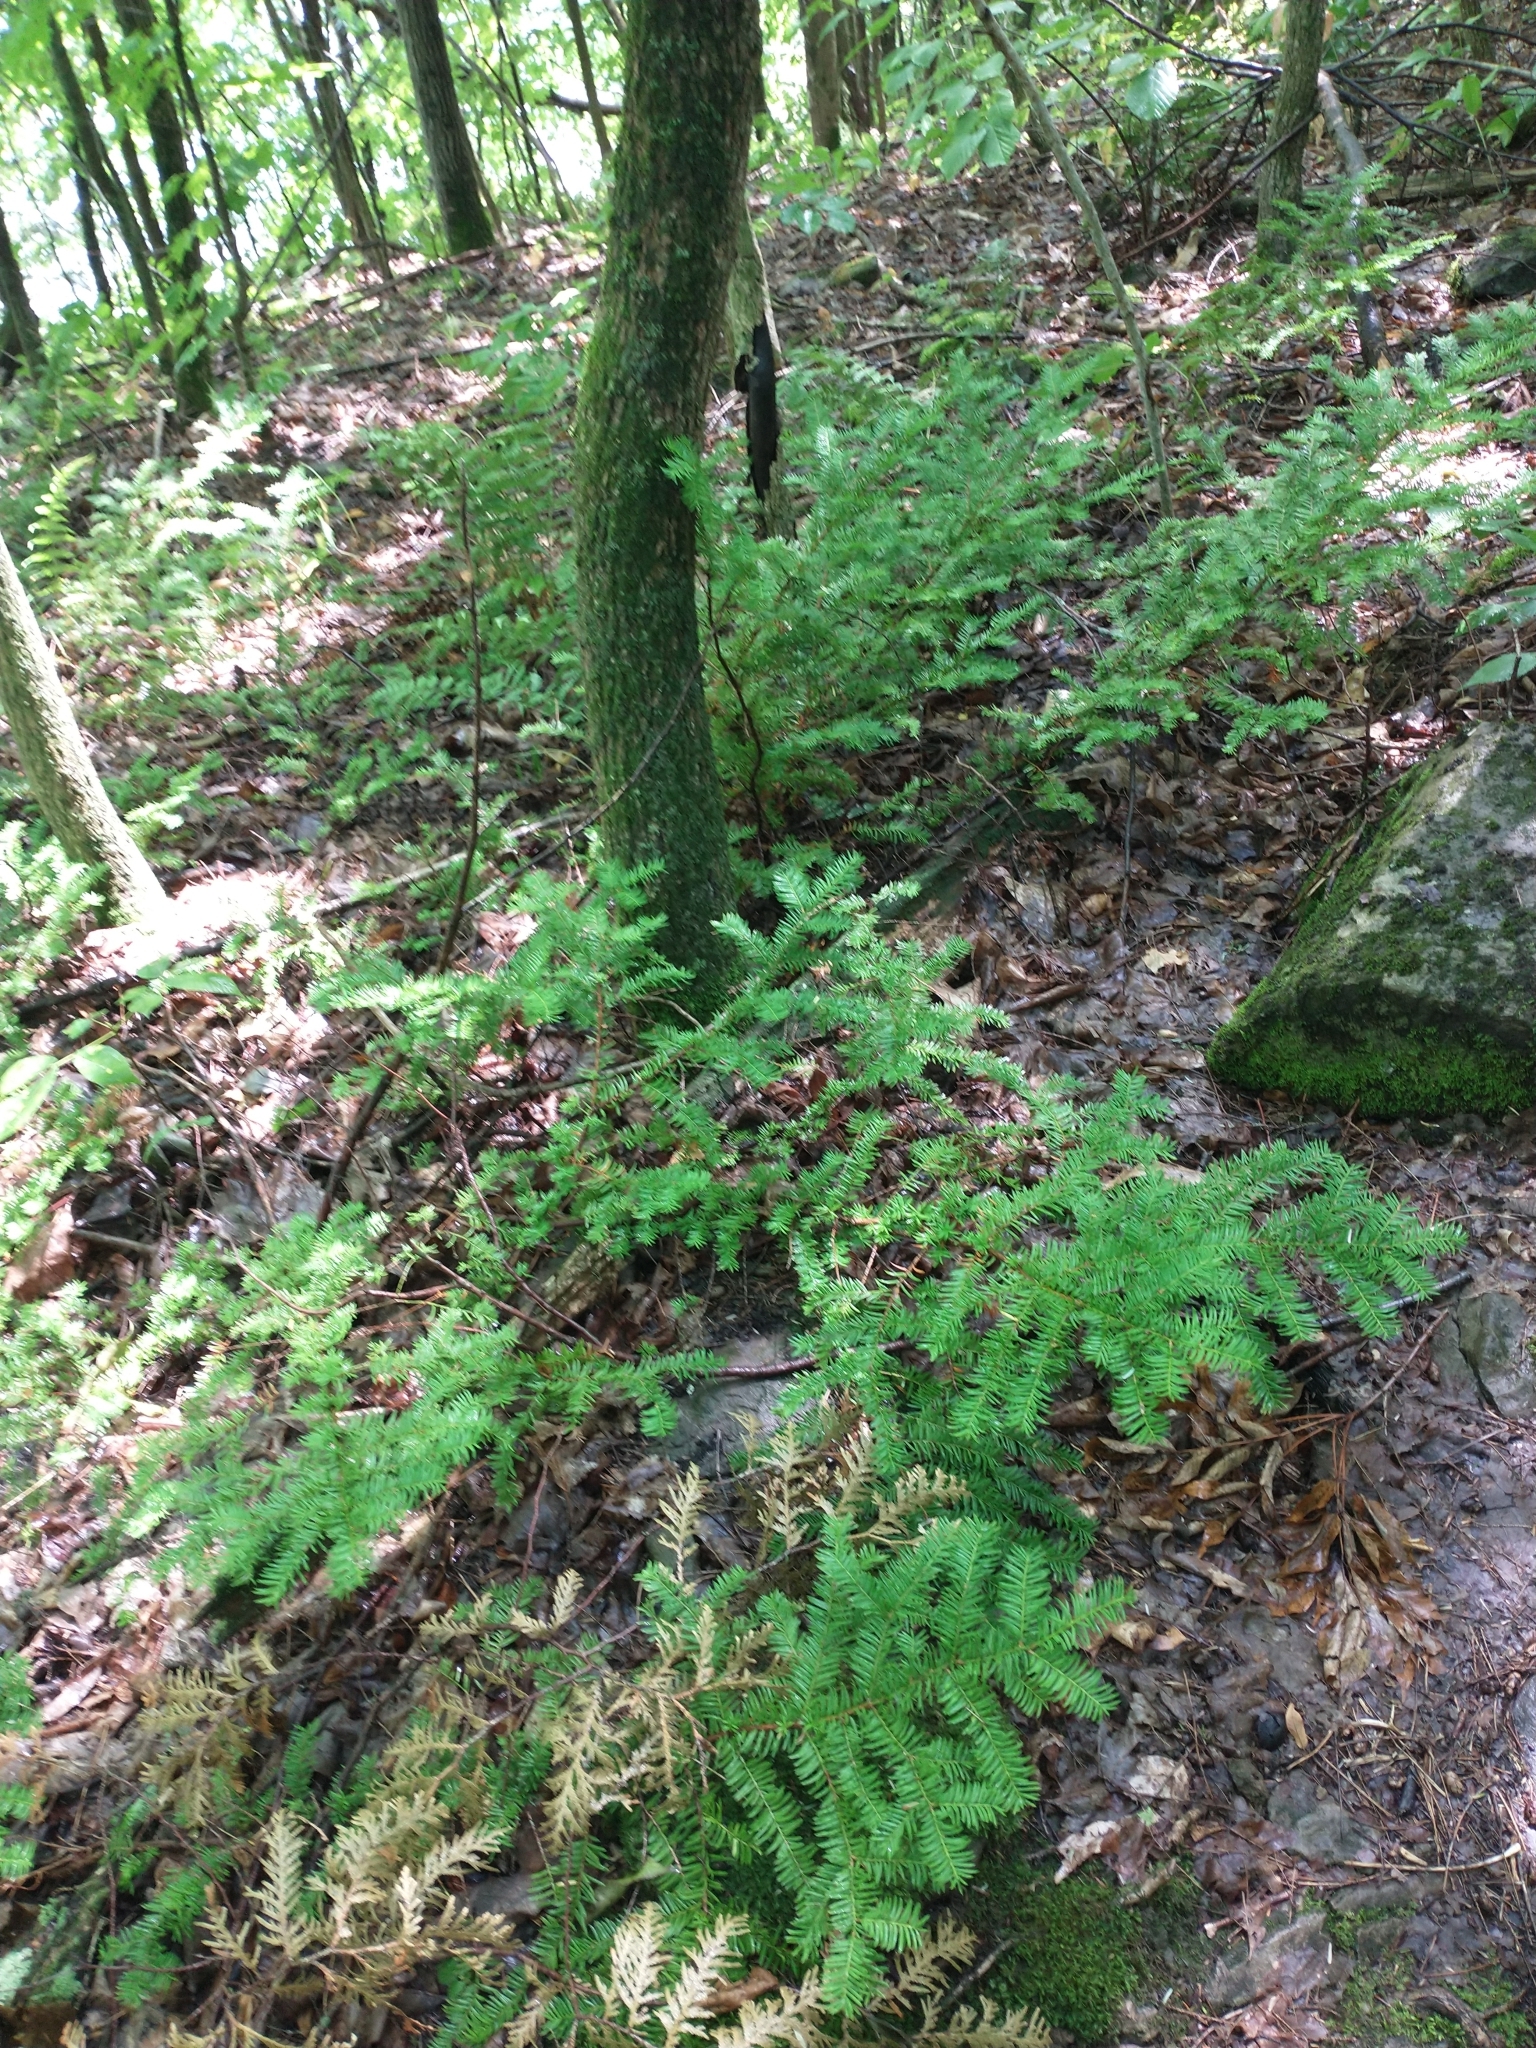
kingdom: Plantae
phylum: Tracheophyta
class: Pinopsida
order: Pinales
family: Taxaceae
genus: Taxus
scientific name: Taxus canadensis
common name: American yew
